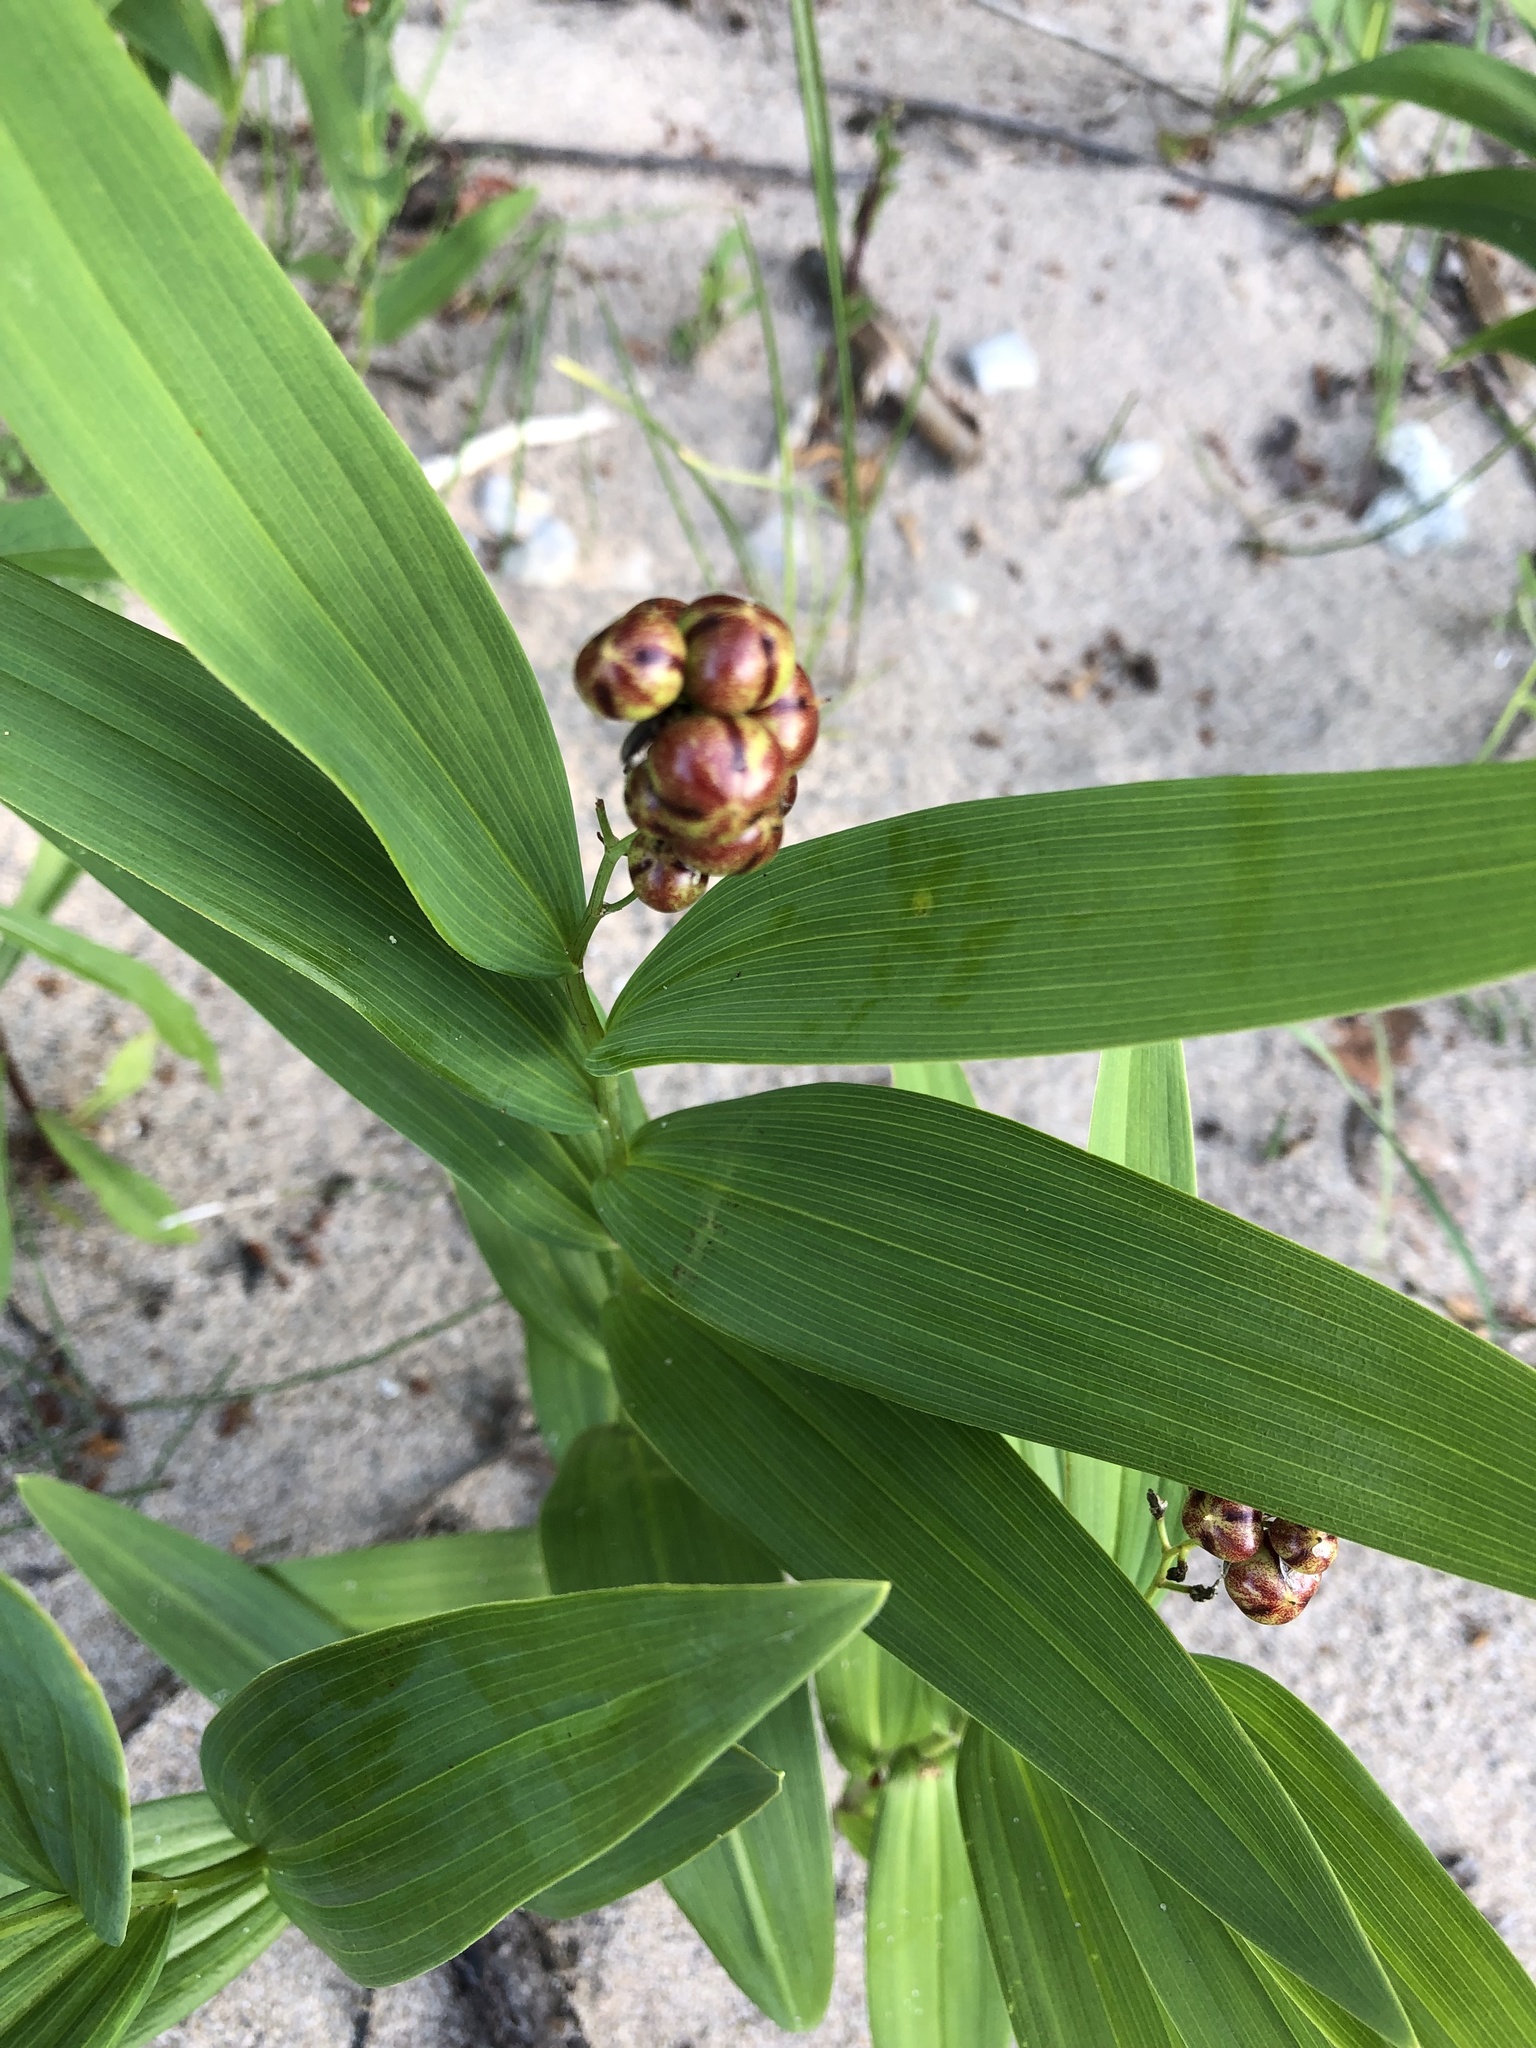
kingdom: Plantae
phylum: Tracheophyta
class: Liliopsida
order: Asparagales
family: Asparagaceae
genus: Maianthemum
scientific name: Maianthemum stellatum
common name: Little false solomon's seal
